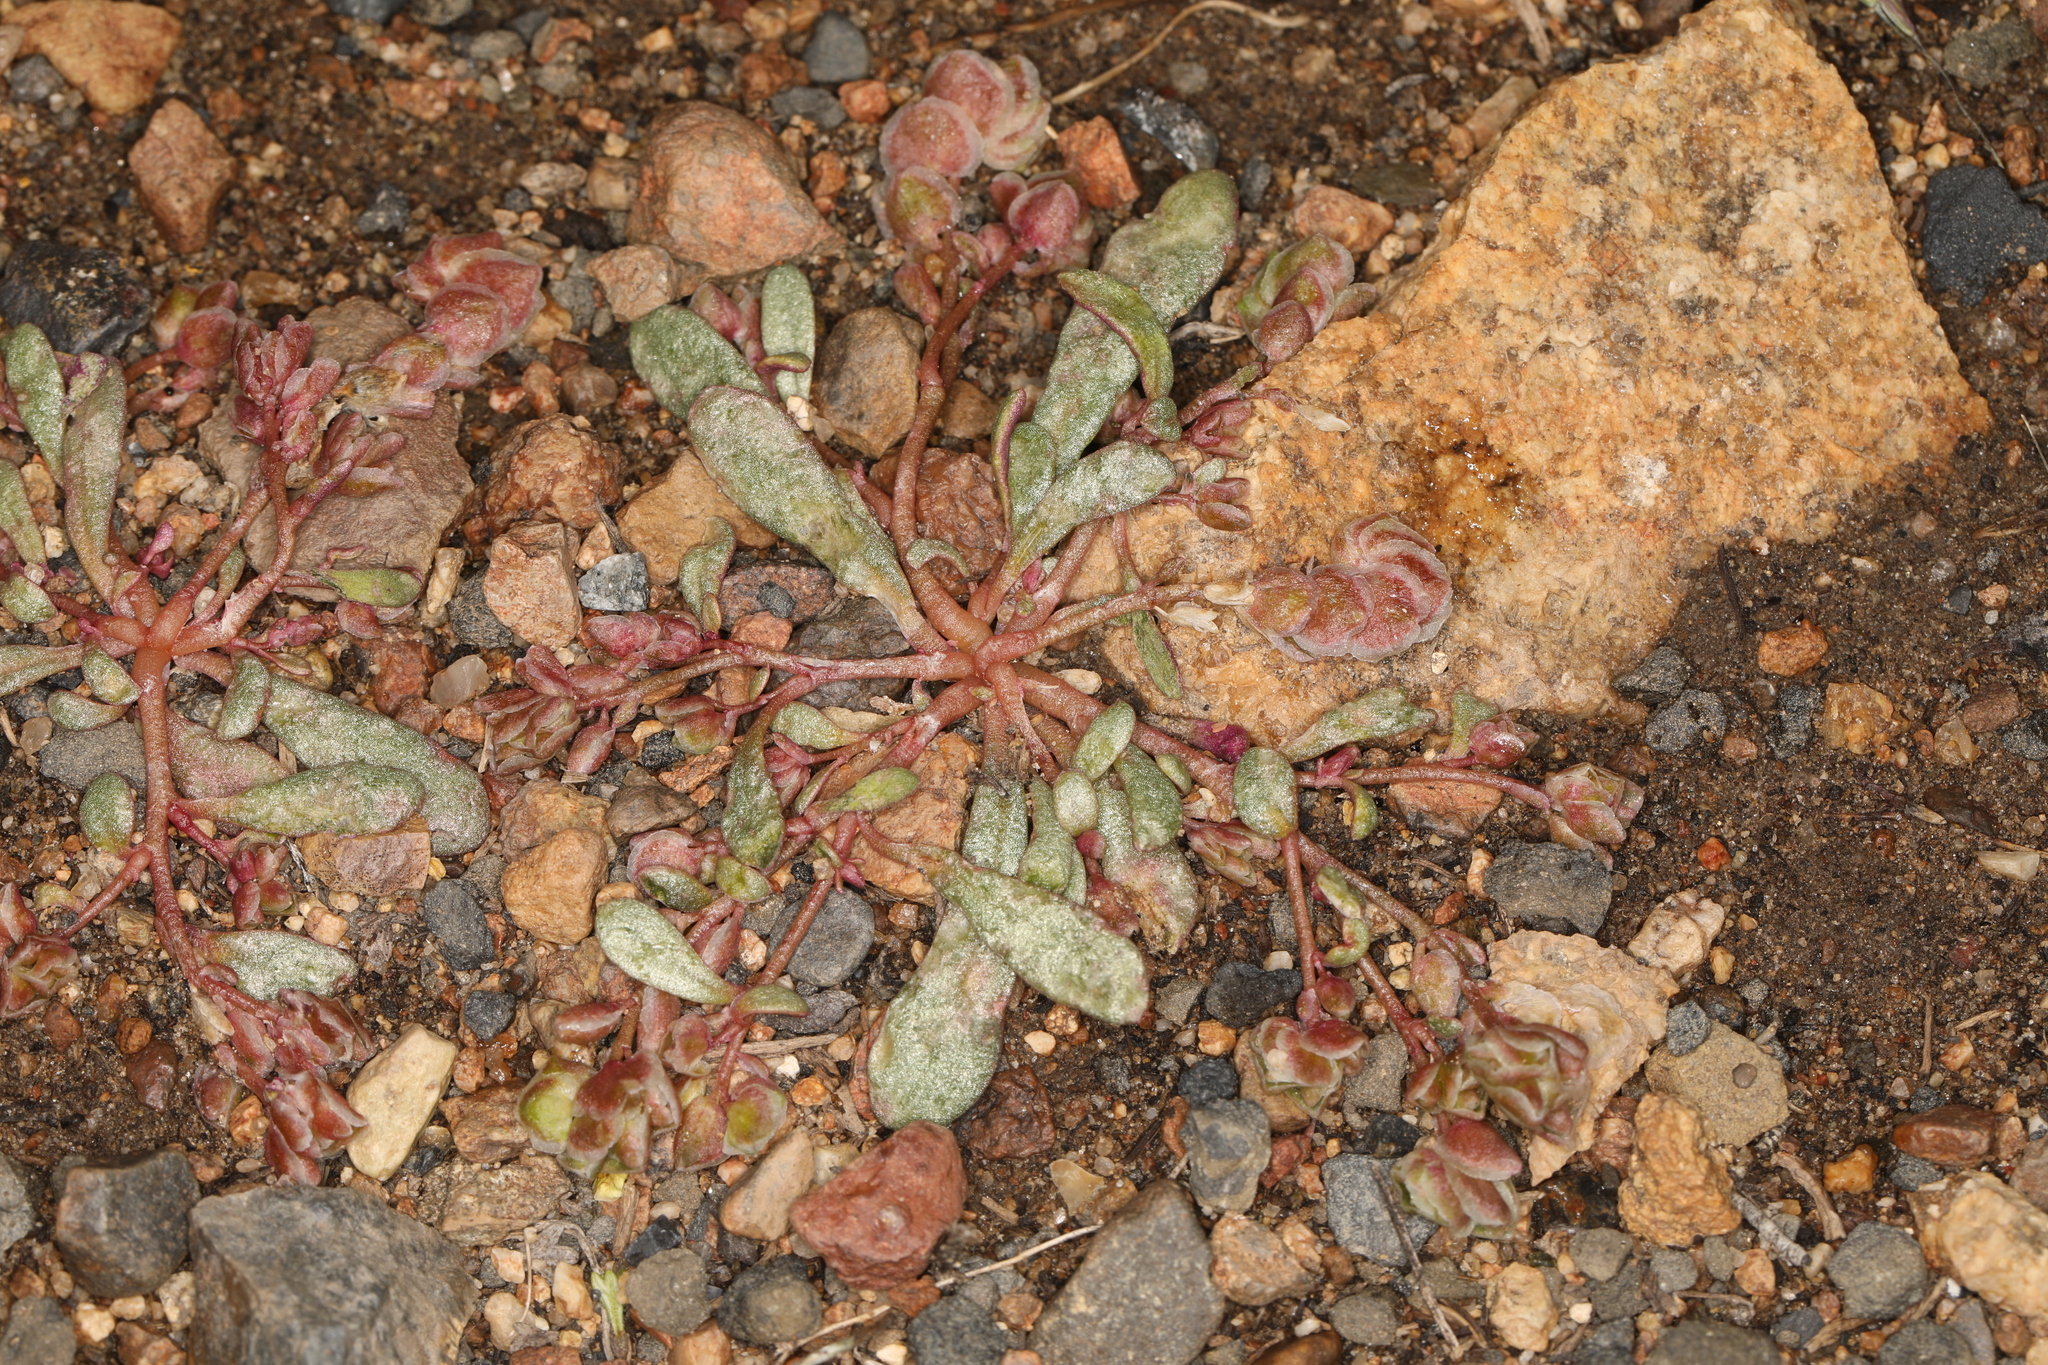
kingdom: Plantae
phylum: Tracheophyta
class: Magnoliopsida
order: Caryophyllales
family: Montiaceae
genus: Calyptridium
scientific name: Calyptridium roseum
